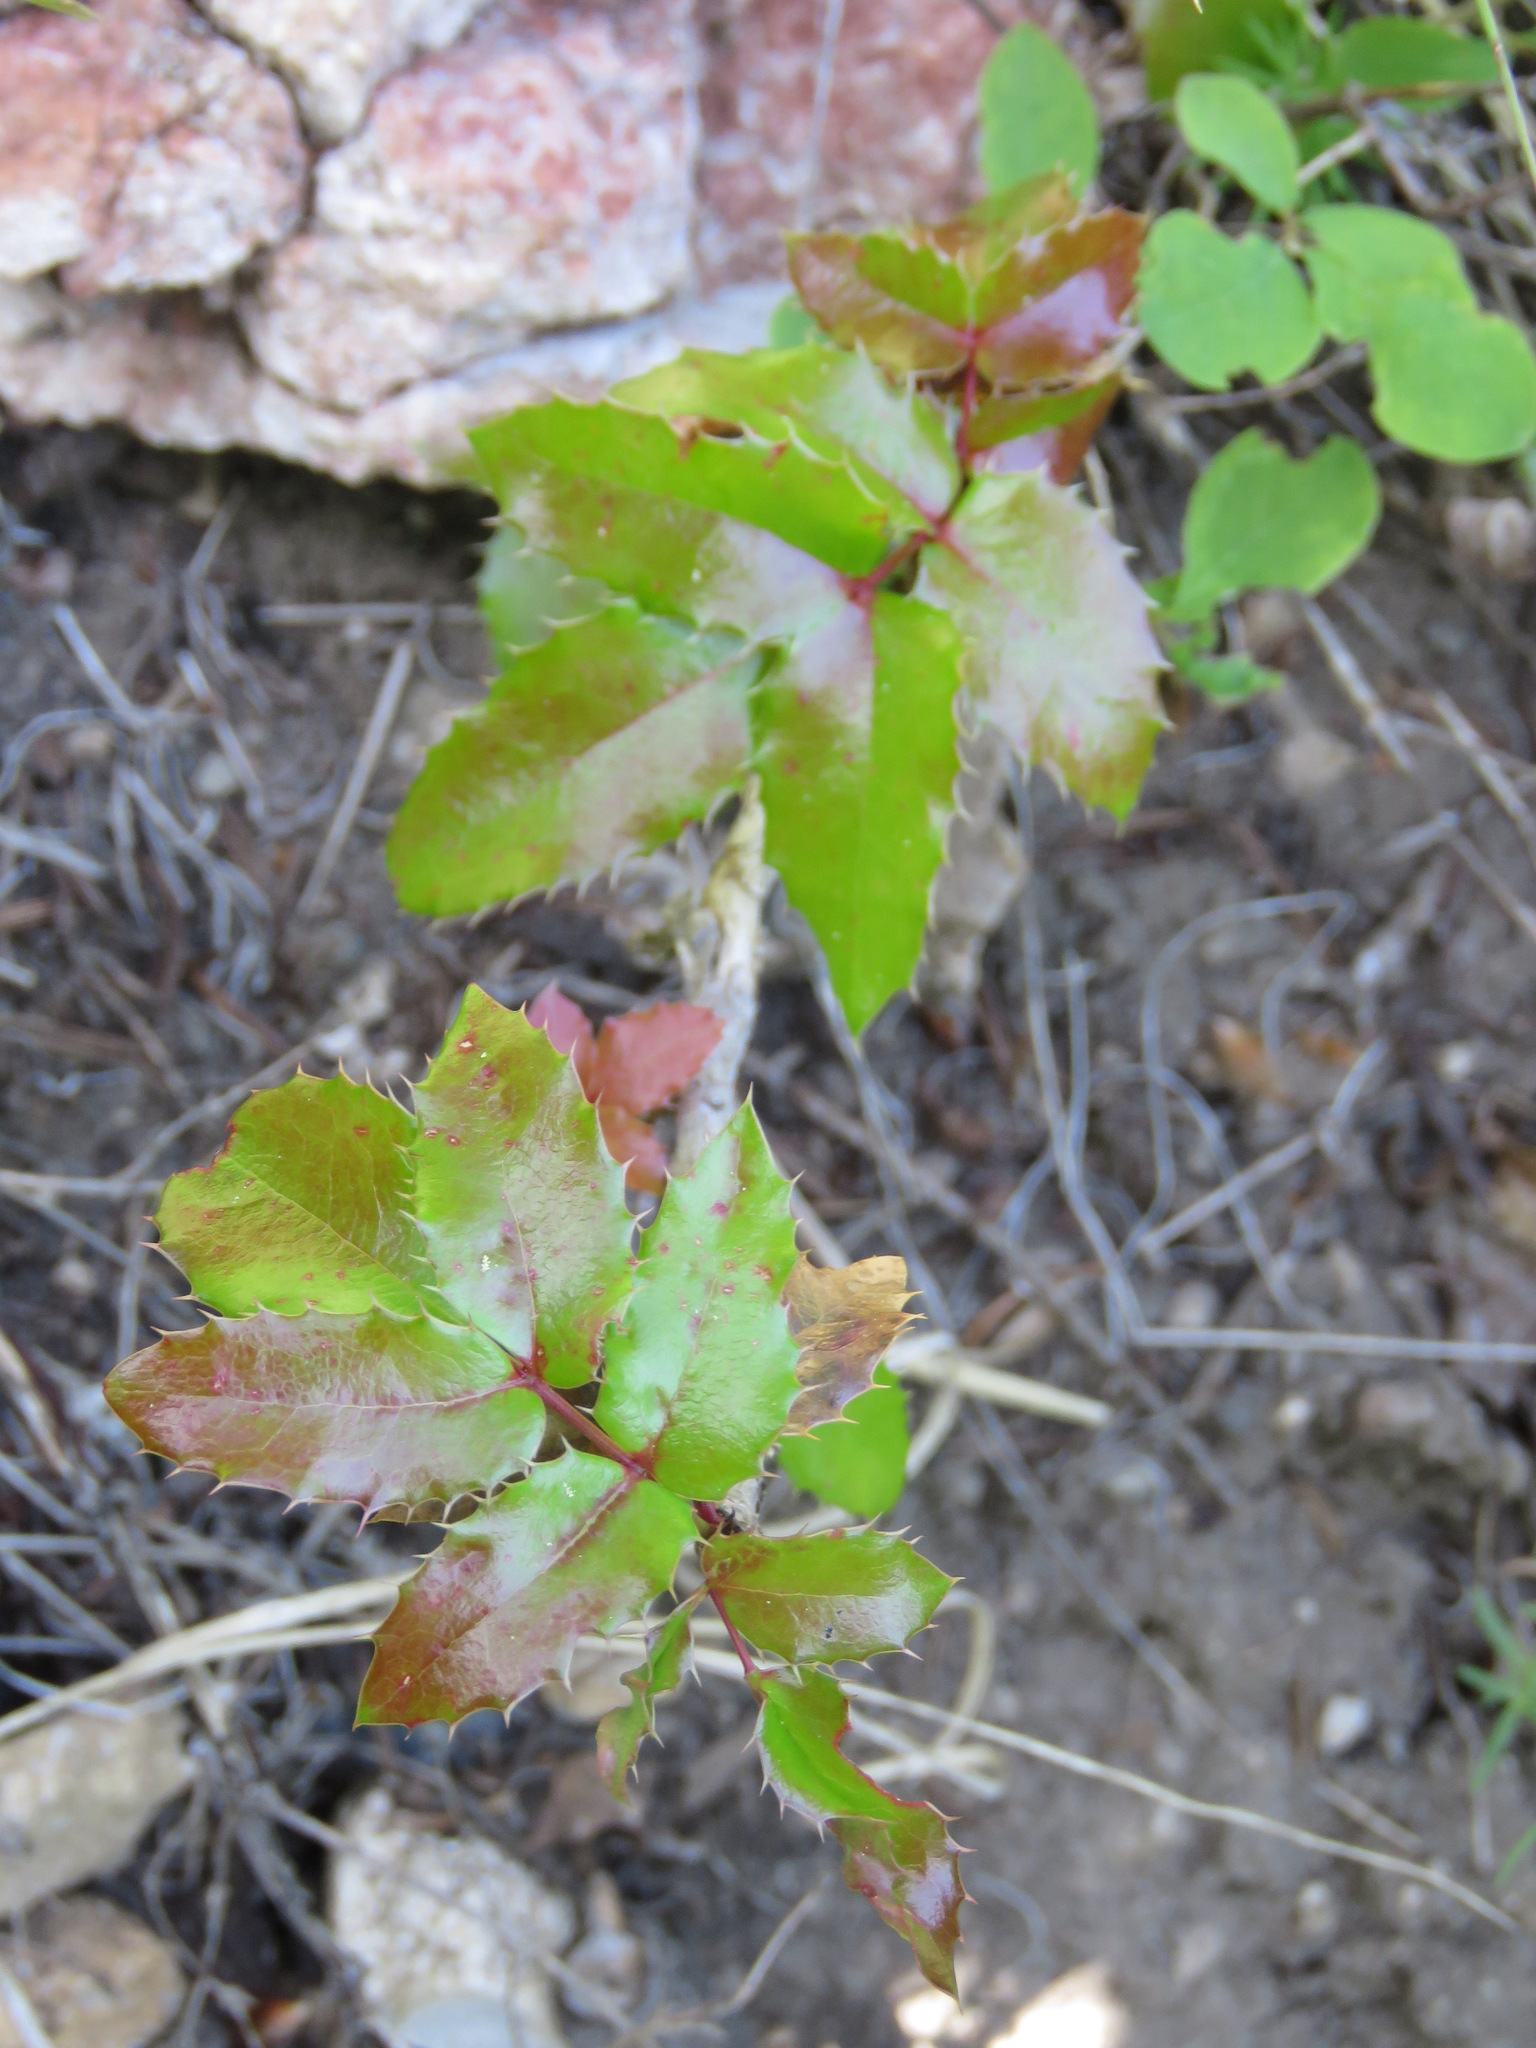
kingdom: Plantae
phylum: Tracheophyta
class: Magnoliopsida
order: Ranunculales
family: Berberidaceae
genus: Mahonia
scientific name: Mahonia aquifolium
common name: Oregon-grape
